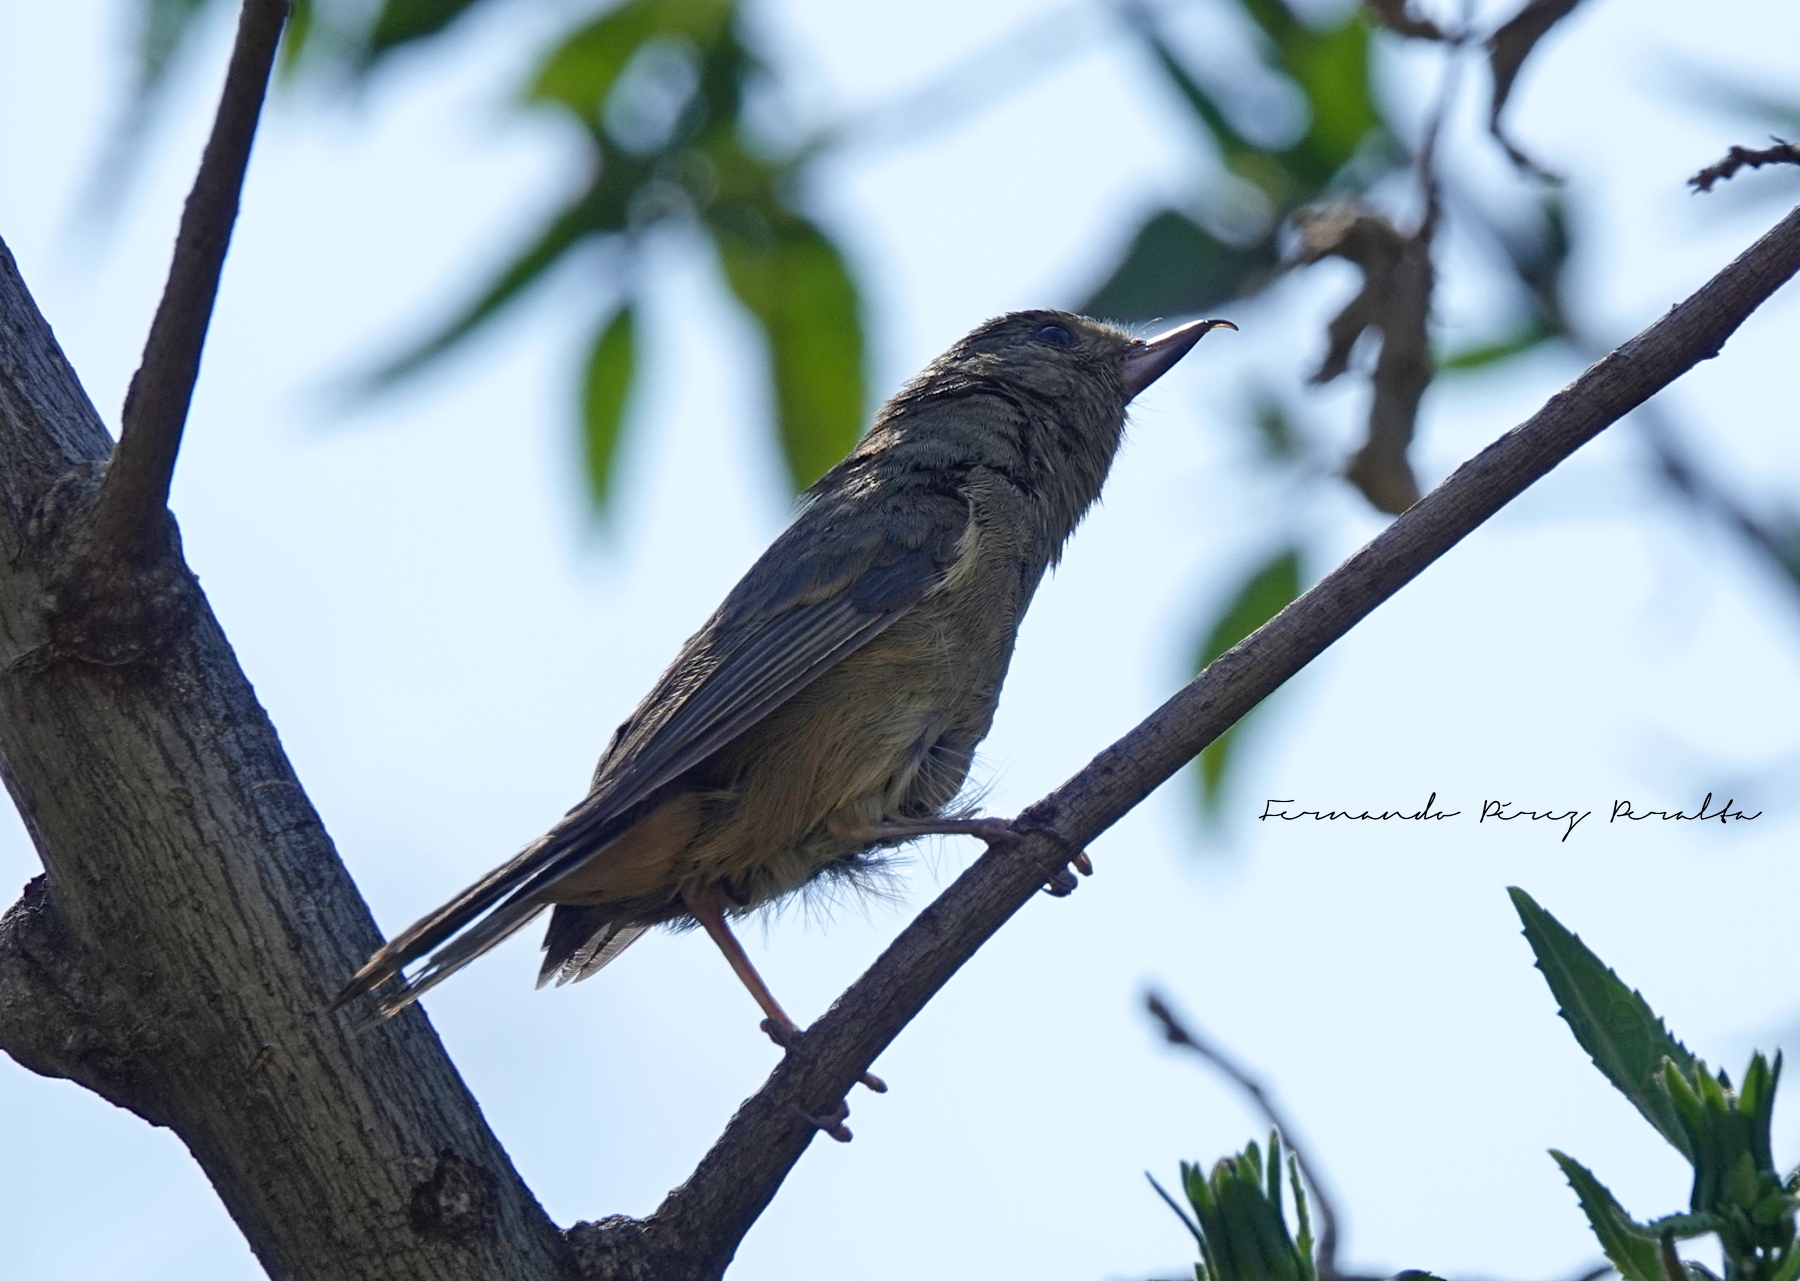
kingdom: Animalia
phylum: Chordata
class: Aves
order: Passeriformes
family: Thraupidae
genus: Diglossa
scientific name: Diglossa baritula
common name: Cinnamon-bellied flowerpiercer
